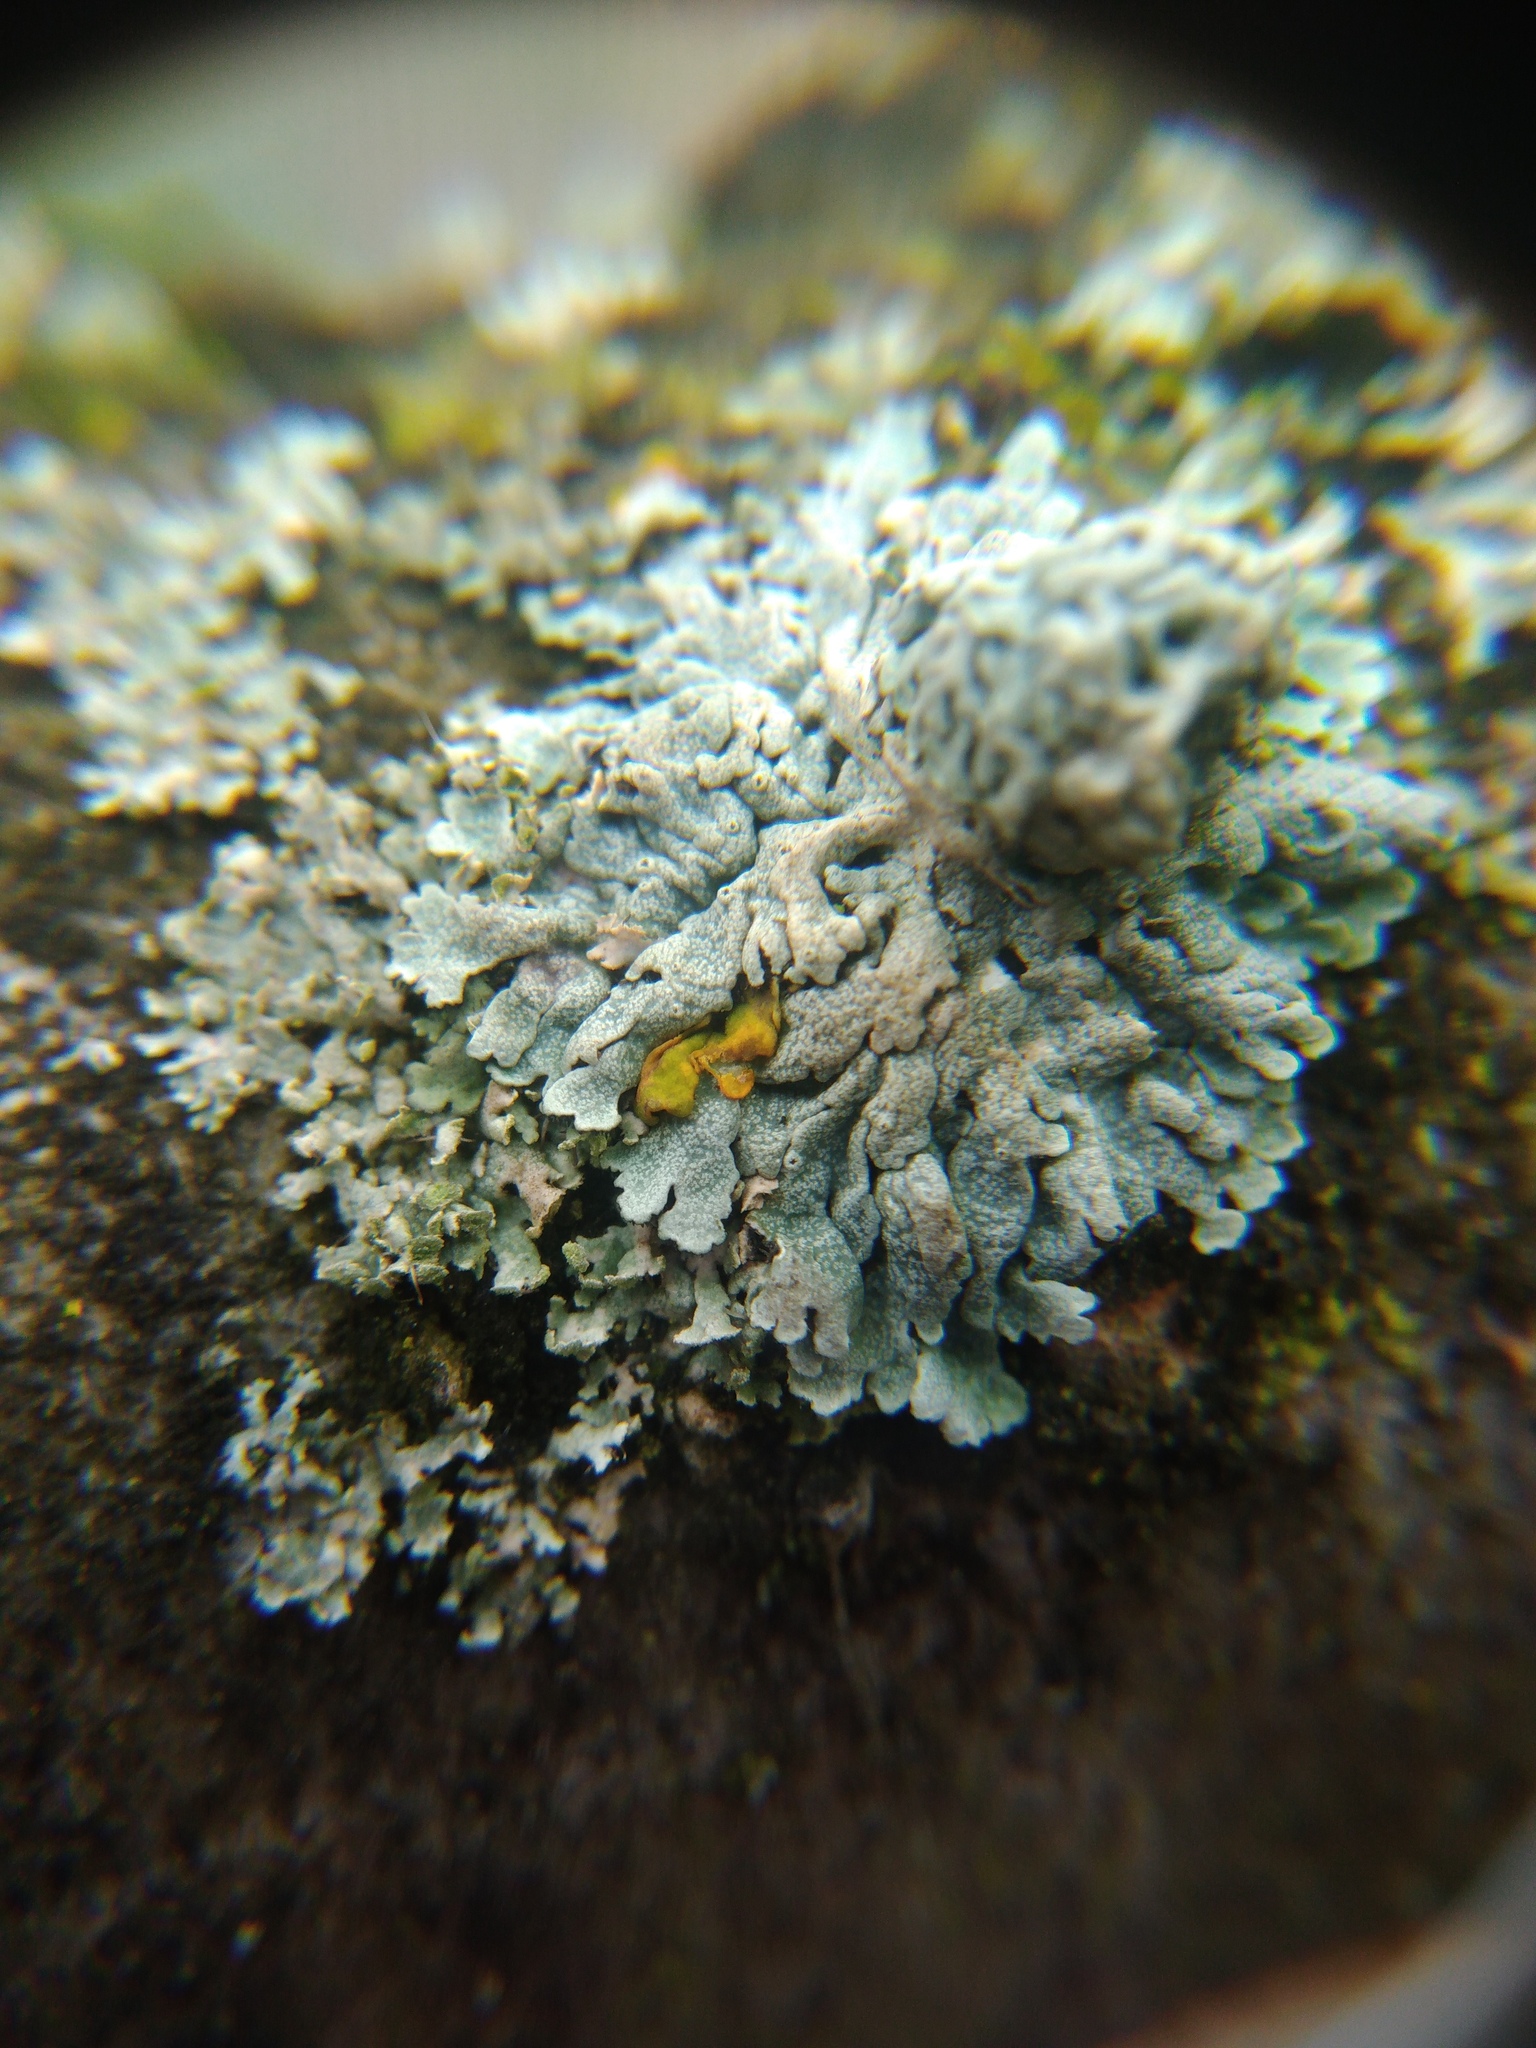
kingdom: Fungi
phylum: Ascomycota
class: Lecanoromycetes
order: Caliciales
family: Physciaceae
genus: Physcia
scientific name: Physcia aipolia
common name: Hoary rosette lichen
